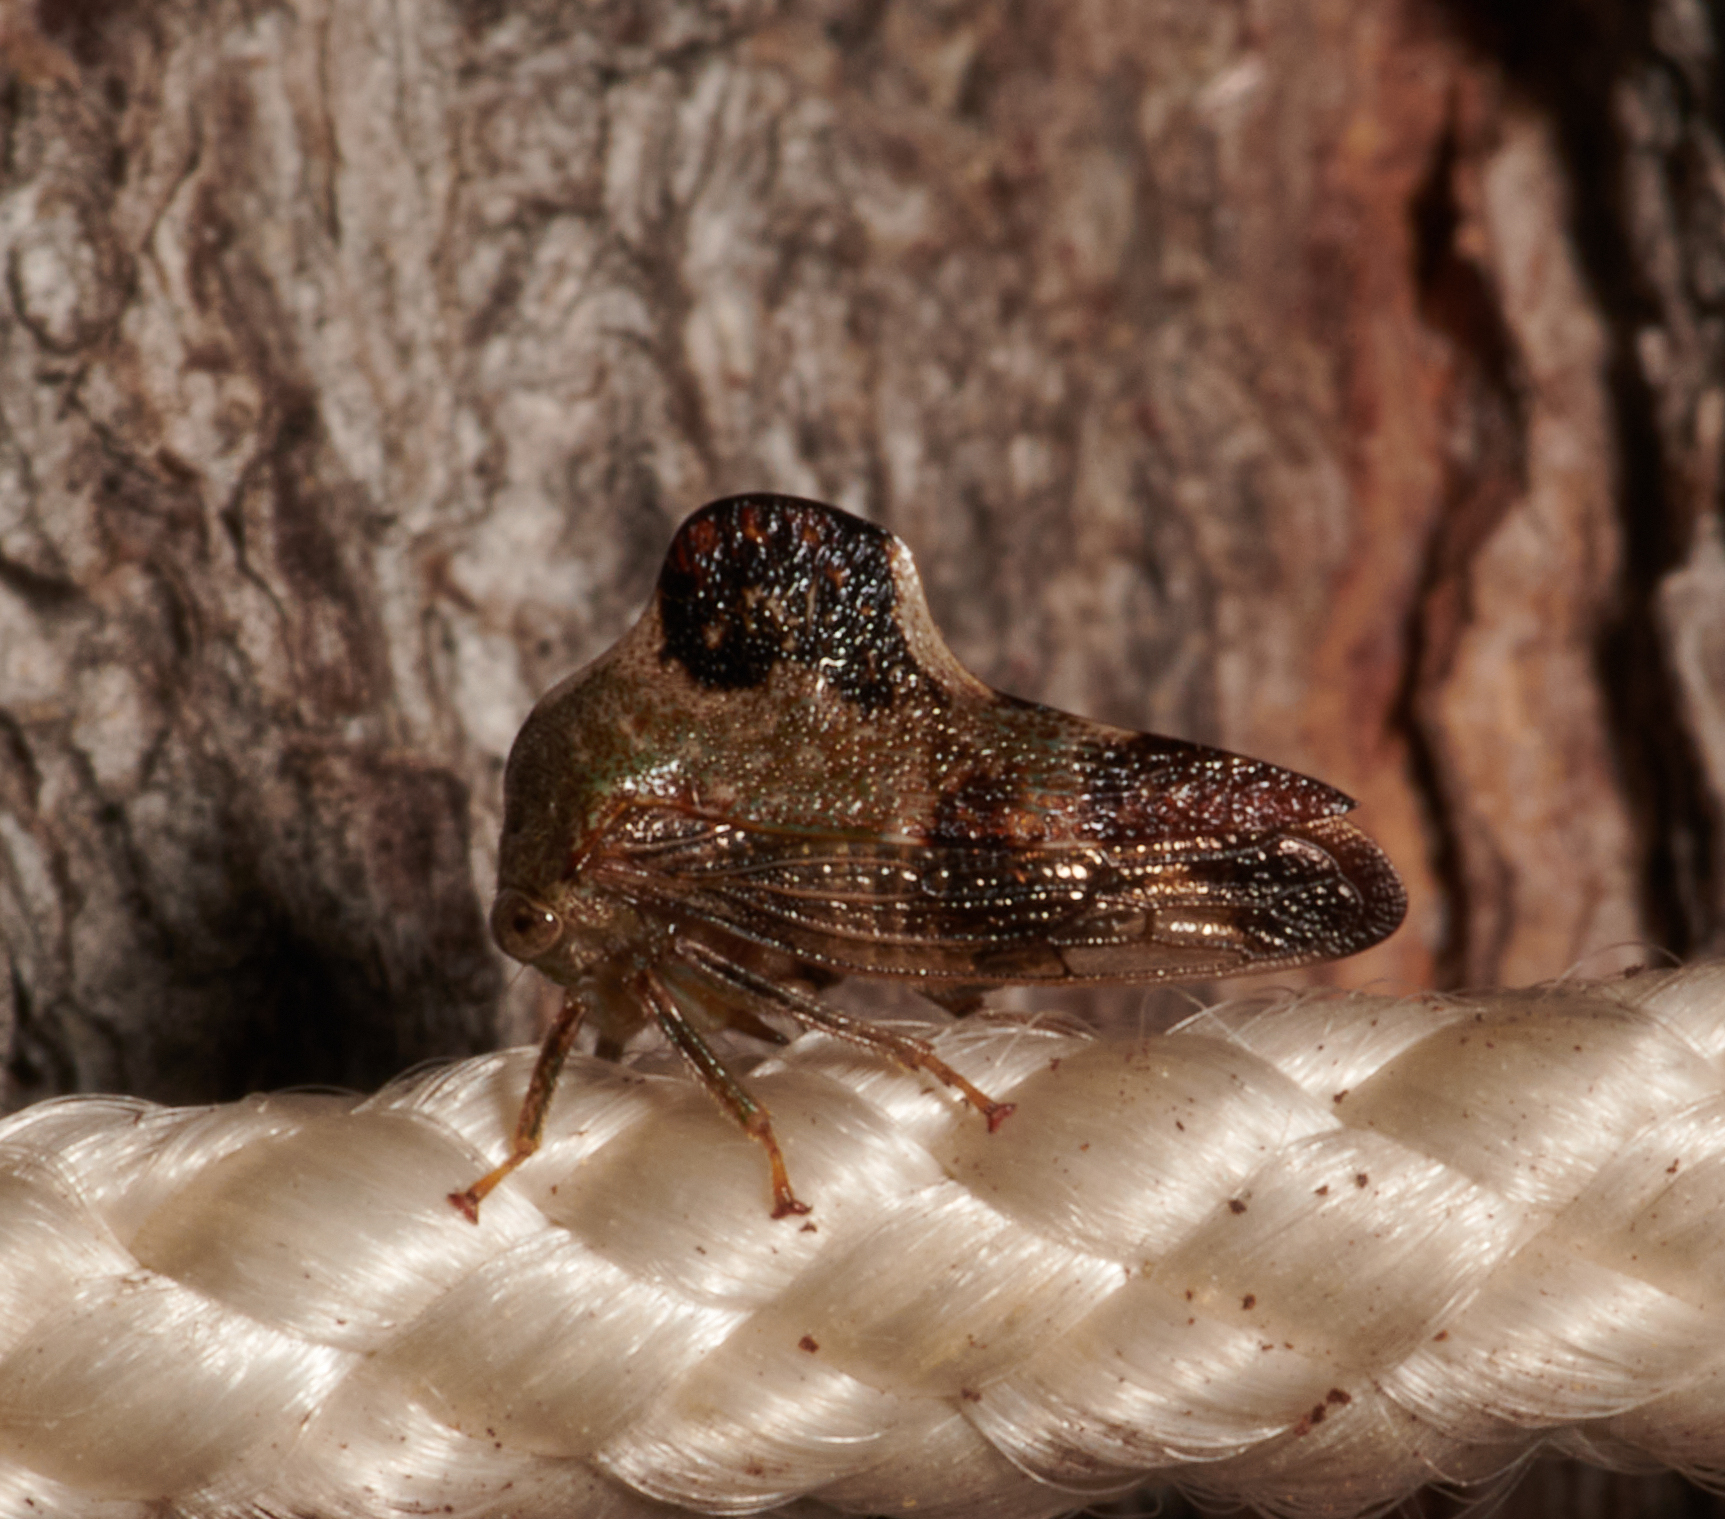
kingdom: Animalia
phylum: Arthropoda
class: Insecta
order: Hemiptera
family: Membracidae
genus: Telamona
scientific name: Telamona decorata
